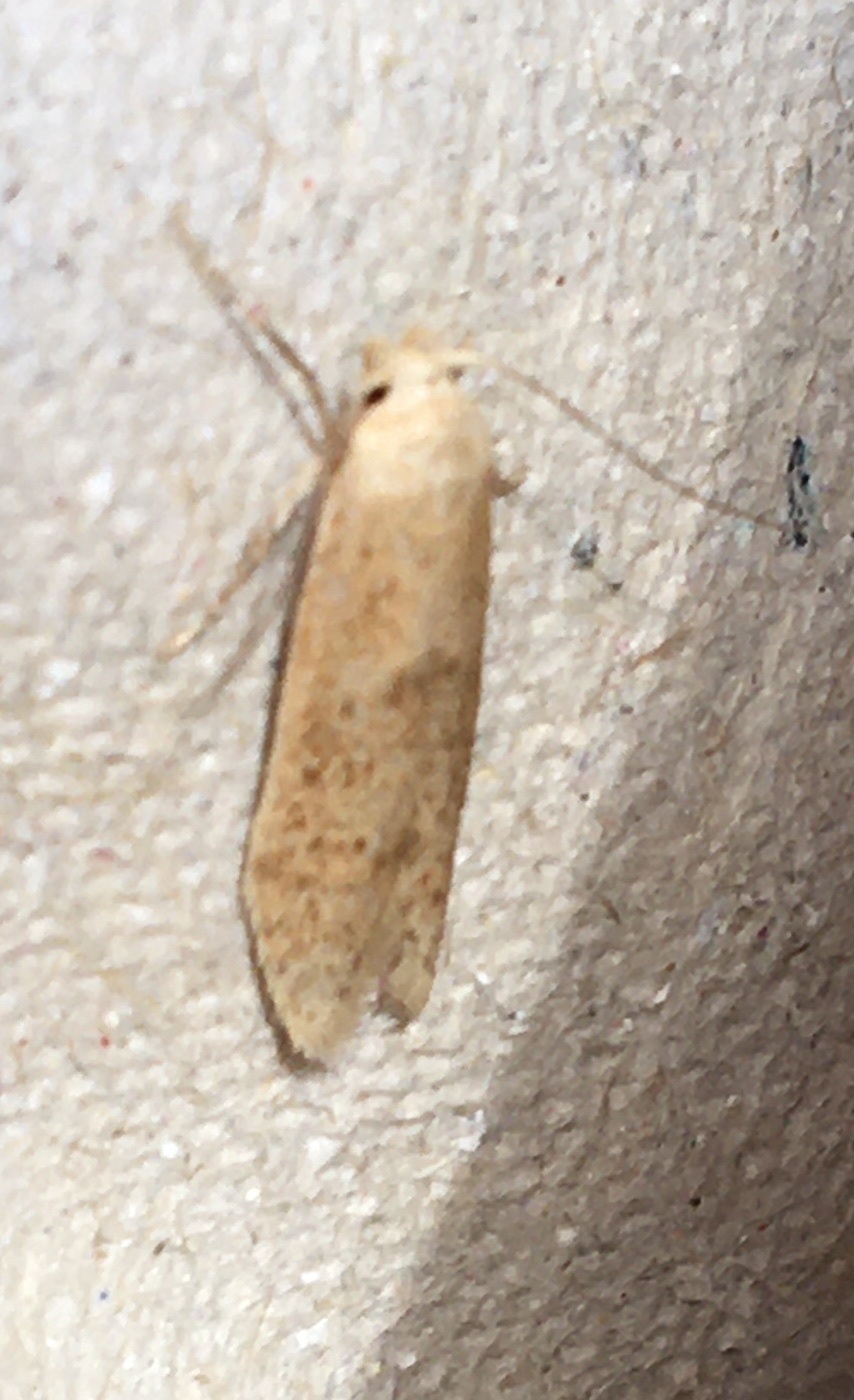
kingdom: Animalia
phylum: Arthropoda
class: Insecta
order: Lepidoptera
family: Blastobasidae
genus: Blastobasis
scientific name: Blastobasis lacticolella
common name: London dowd
